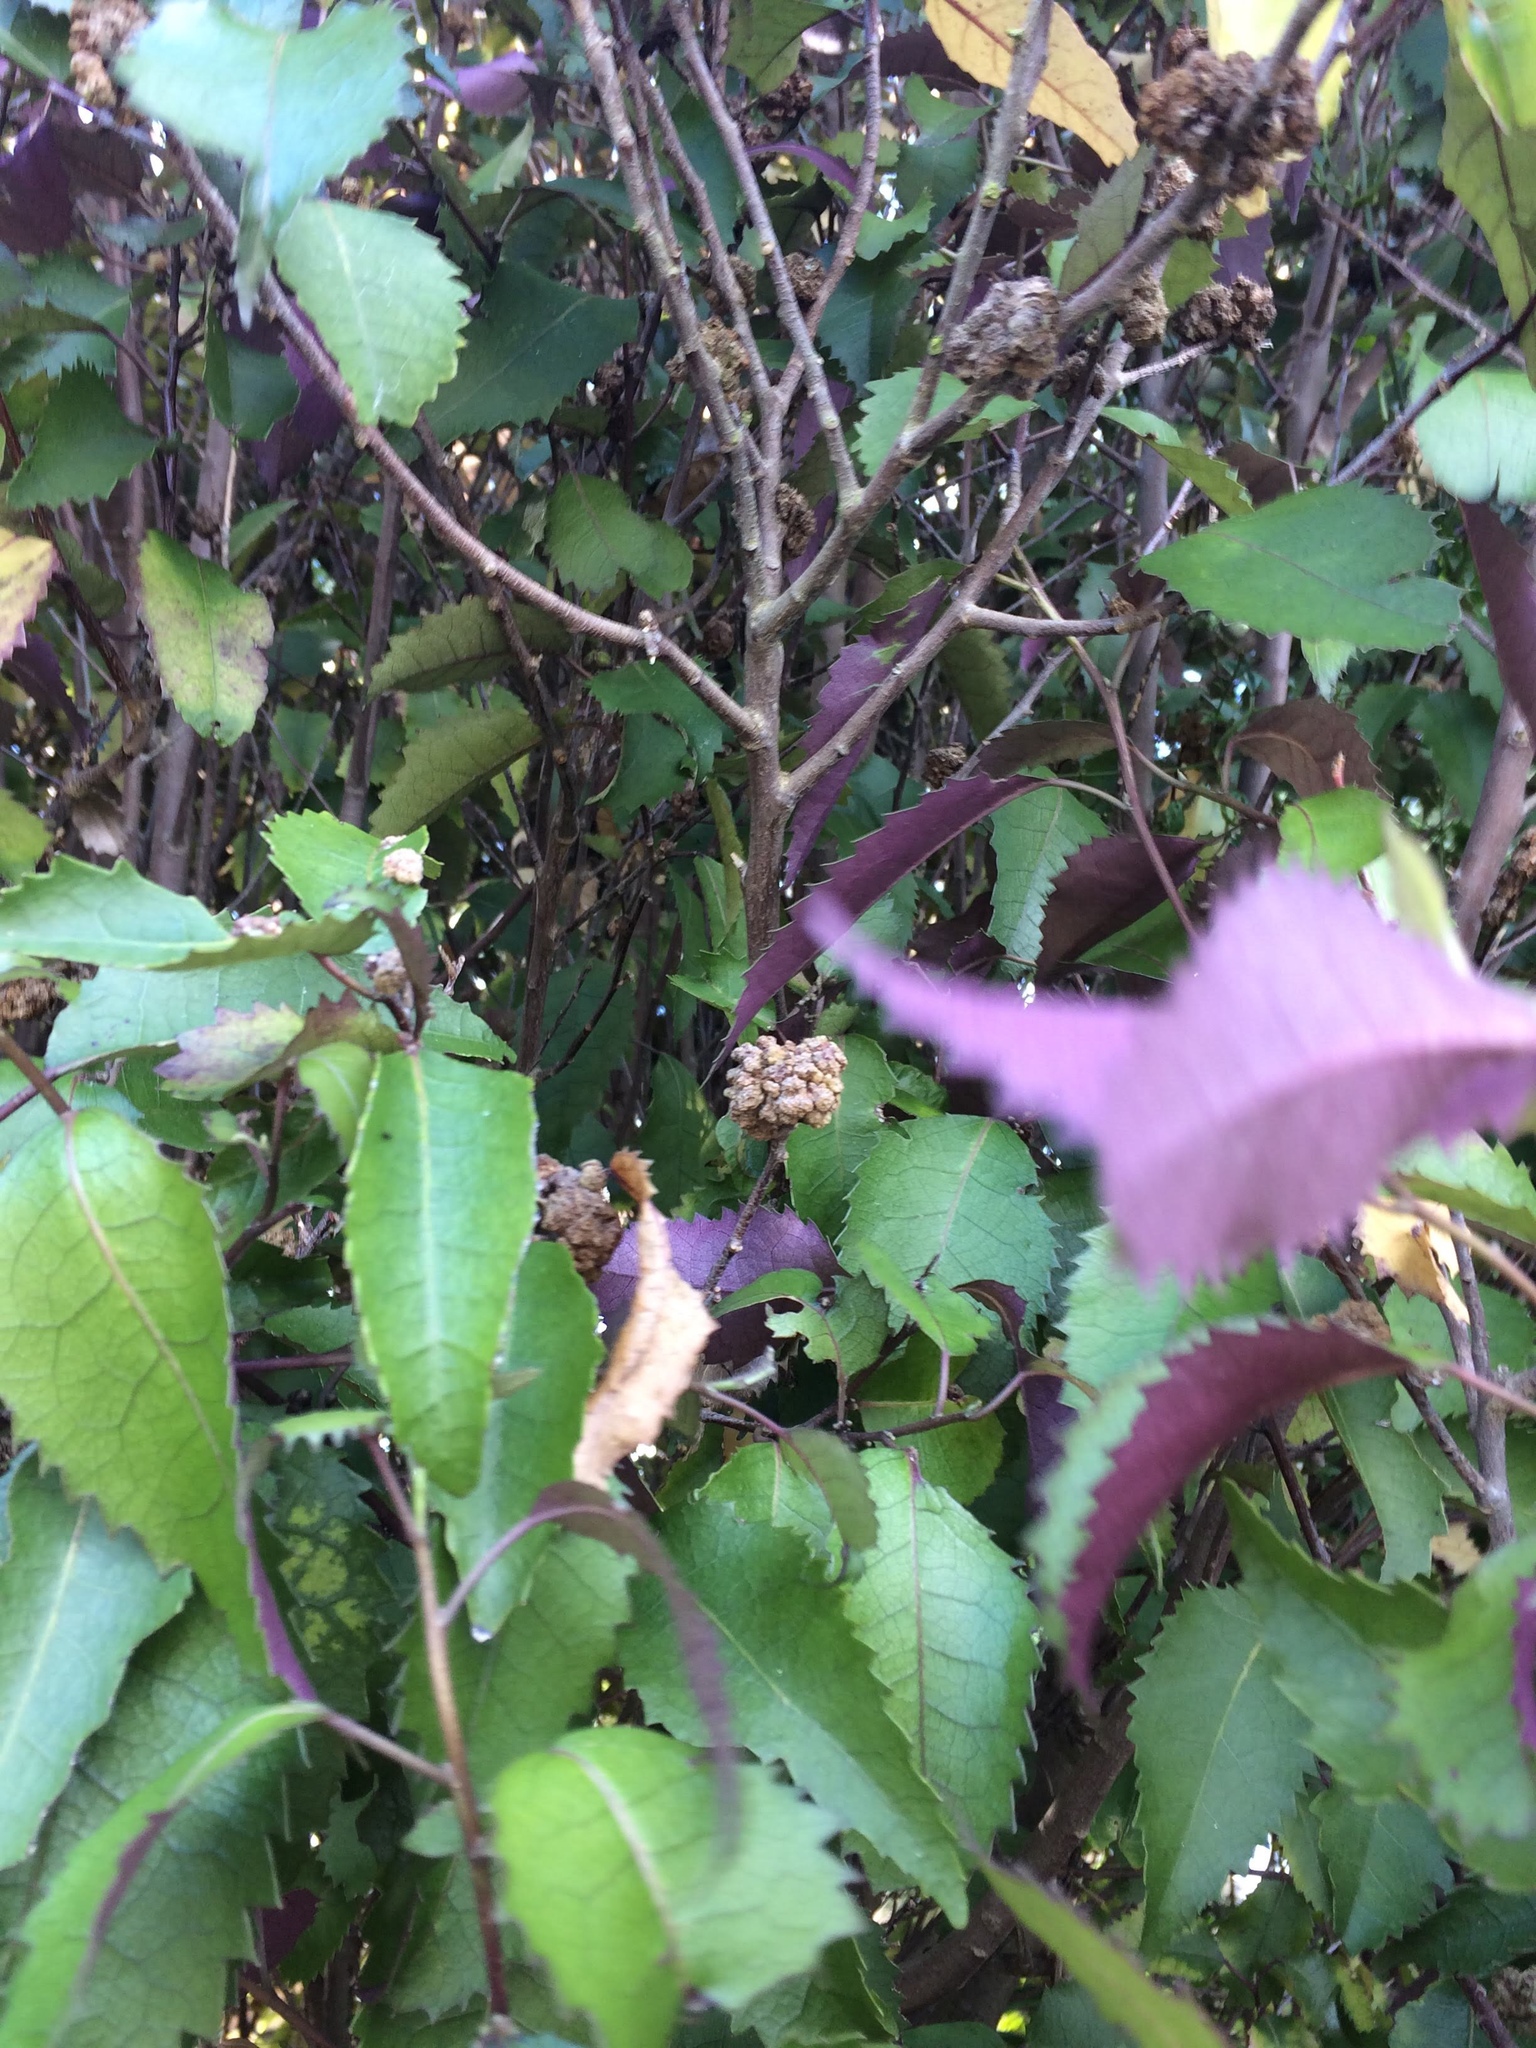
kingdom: Plantae
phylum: Tracheophyta
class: Magnoliopsida
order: Malvales
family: Malvaceae
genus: Hoheria
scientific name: Hoheria populnea
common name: Lacebark
